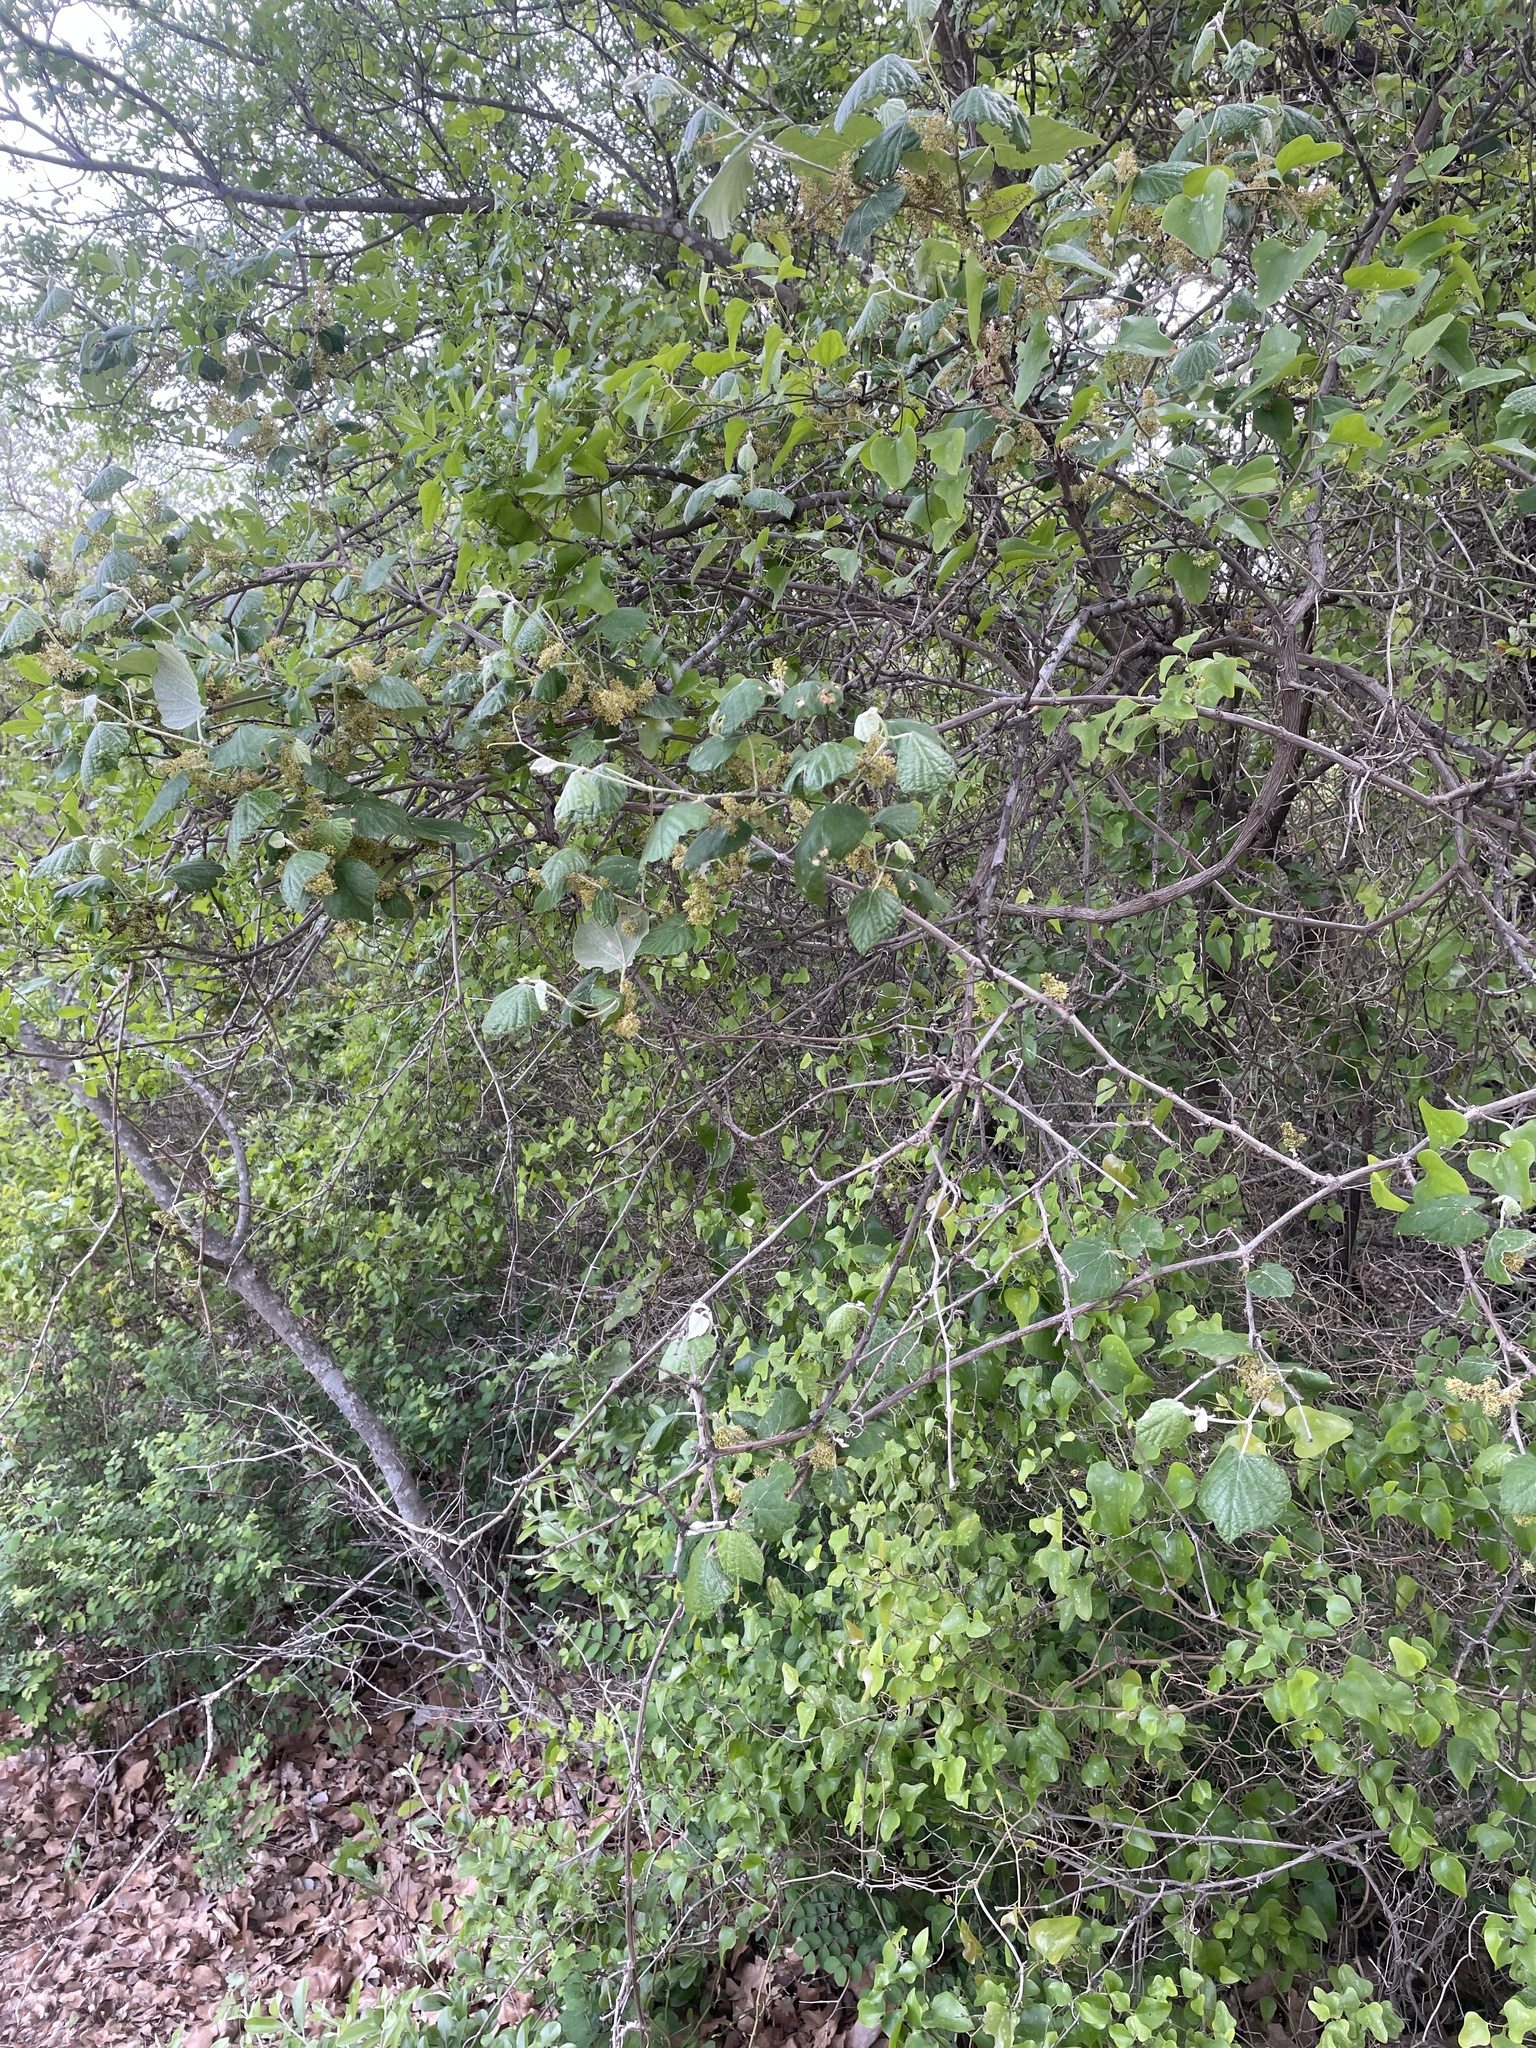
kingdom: Plantae
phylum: Tracheophyta
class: Magnoliopsida
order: Vitales
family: Vitaceae
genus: Vitis
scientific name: Vitis mustangensis
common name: Mustang grape
